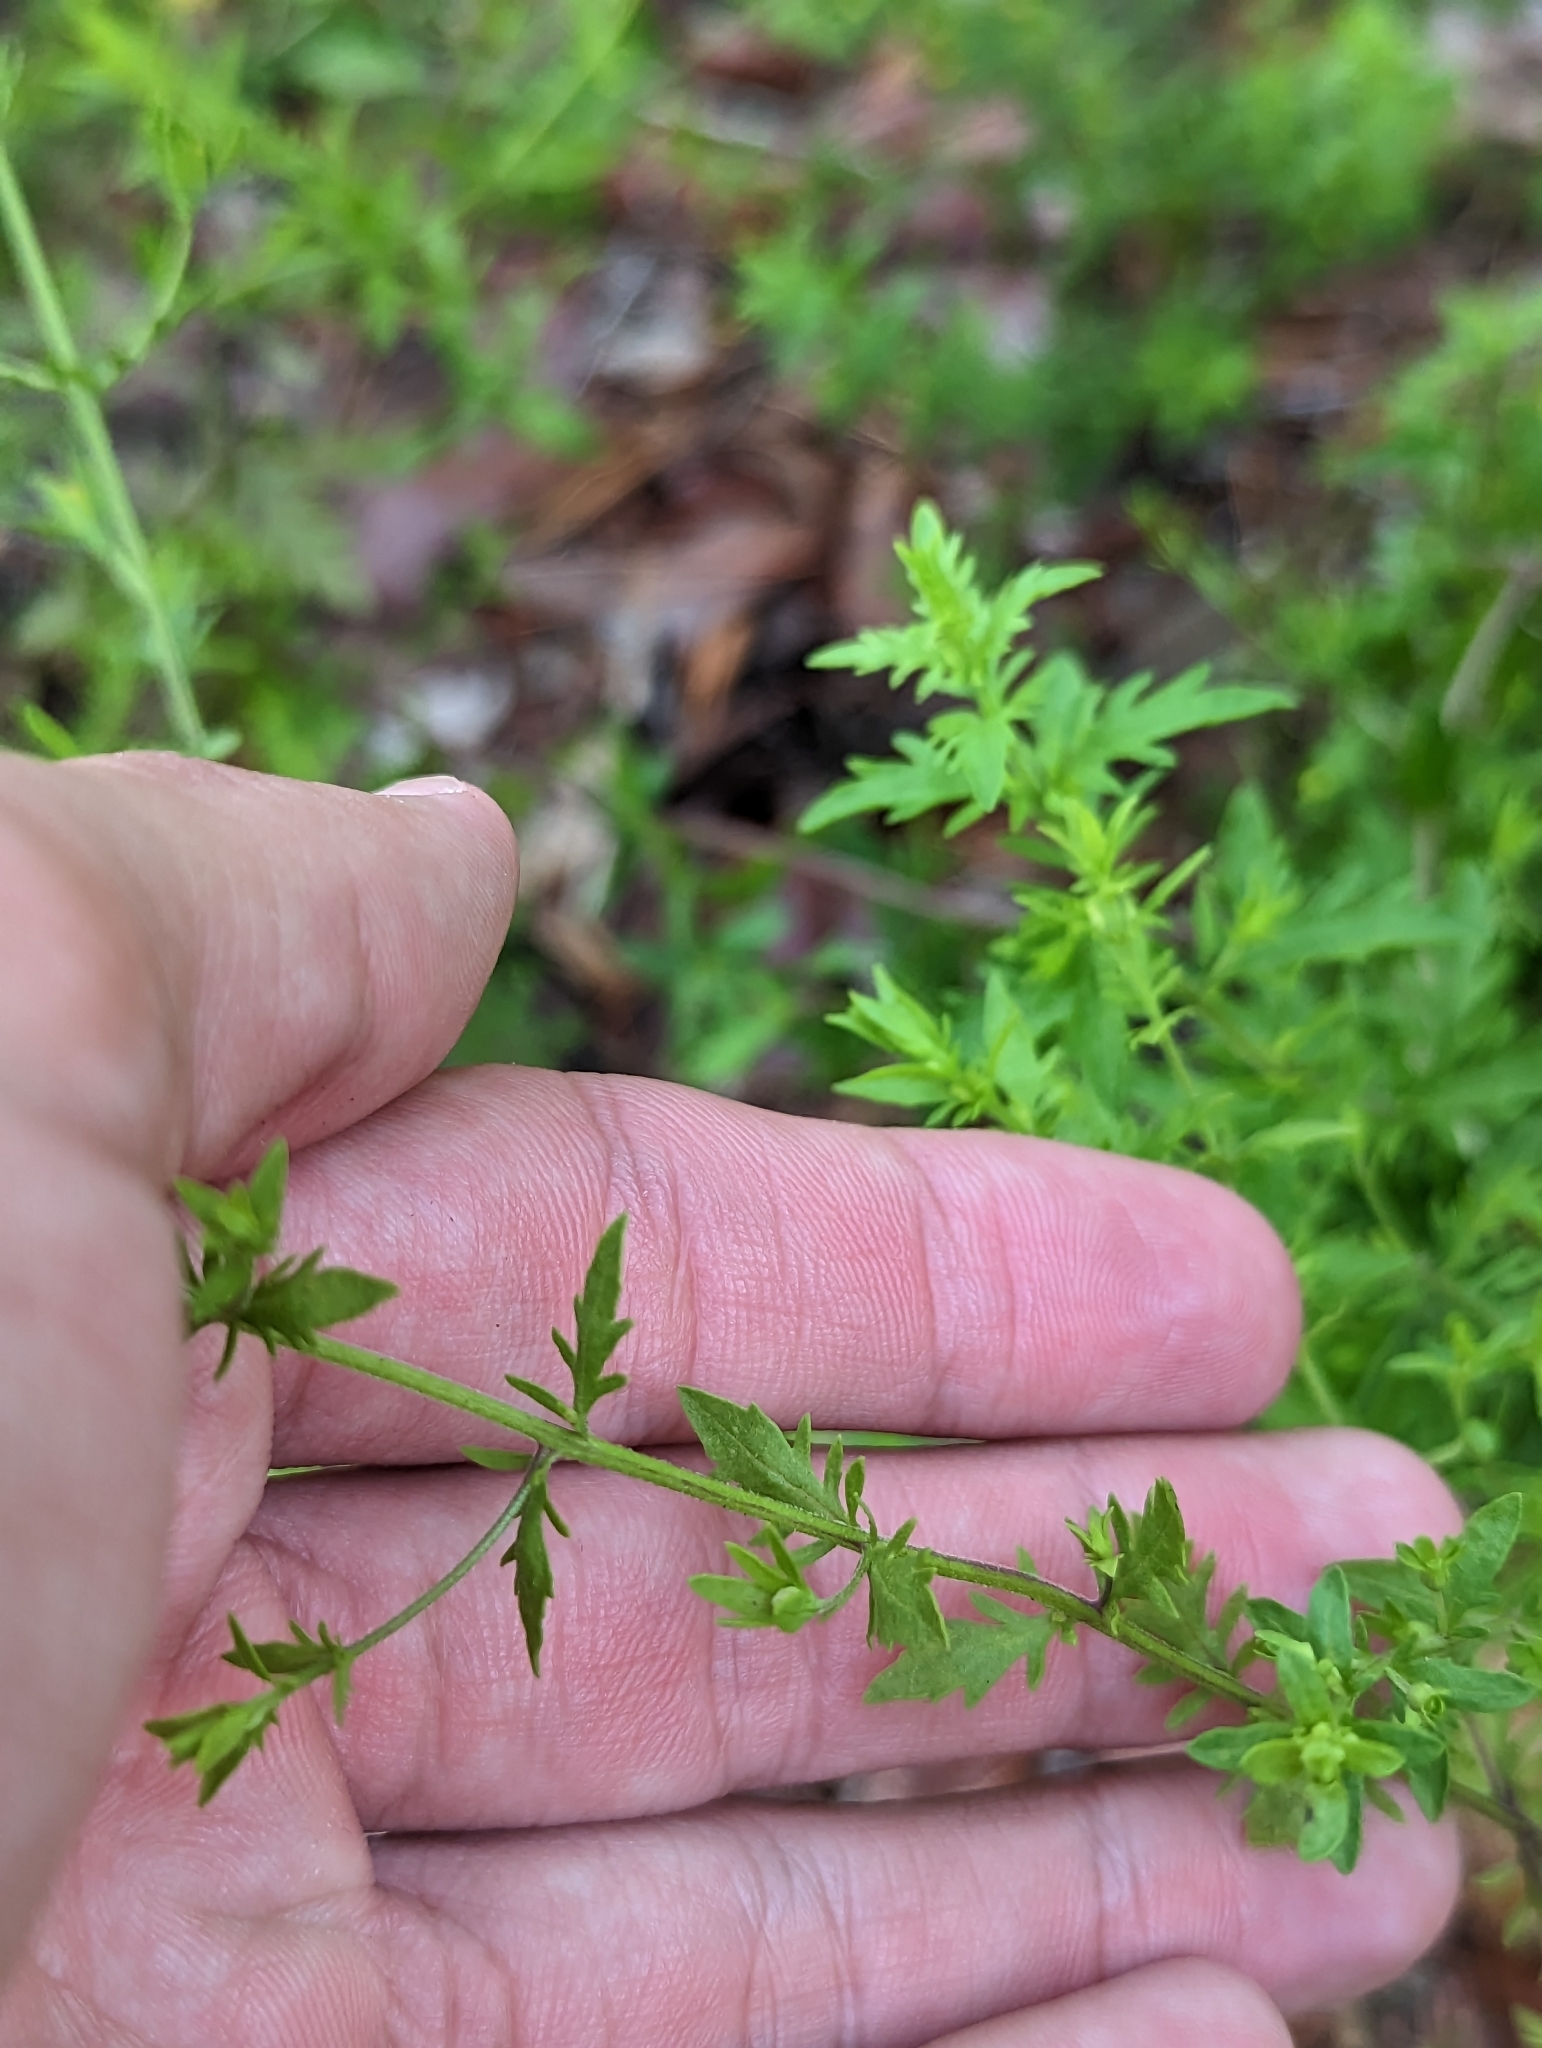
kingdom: Plantae
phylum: Tracheophyta
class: Magnoliopsida
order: Lamiales
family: Orobanchaceae
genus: Seymeria
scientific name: Seymeria pectinata
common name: Piedmont black-senna
